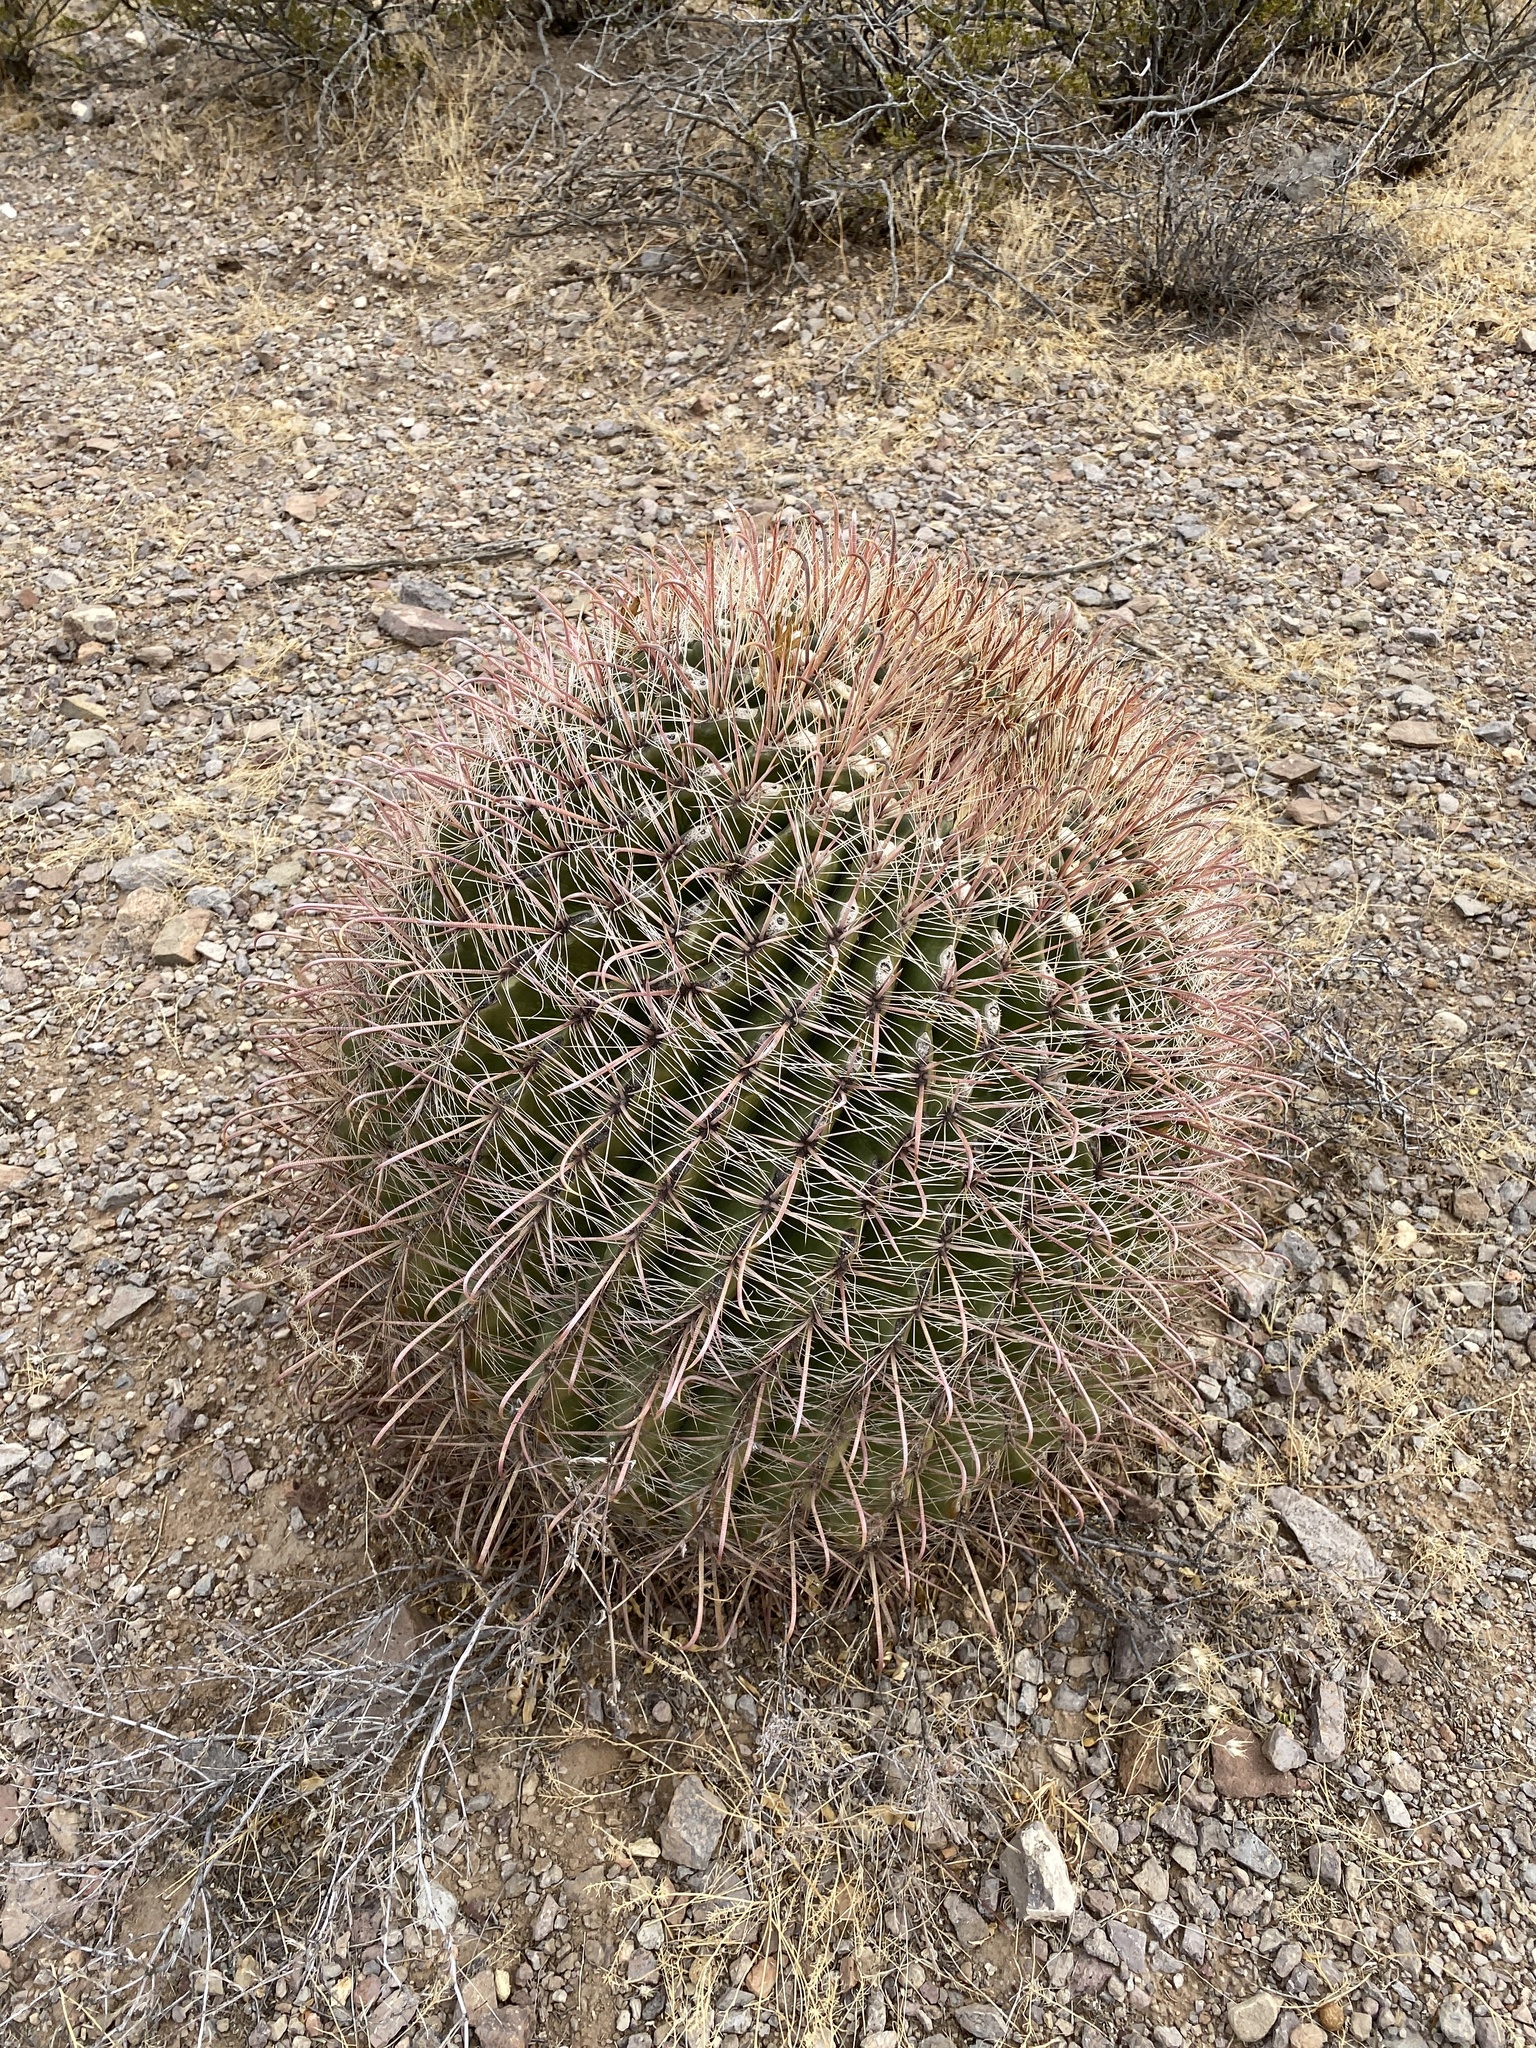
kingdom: Plantae
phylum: Tracheophyta
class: Magnoliopsida
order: Caryophyllales
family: Cactaceae
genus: Ferocactus
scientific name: Ferocactus wislizeni
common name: Candy barrel cactus
